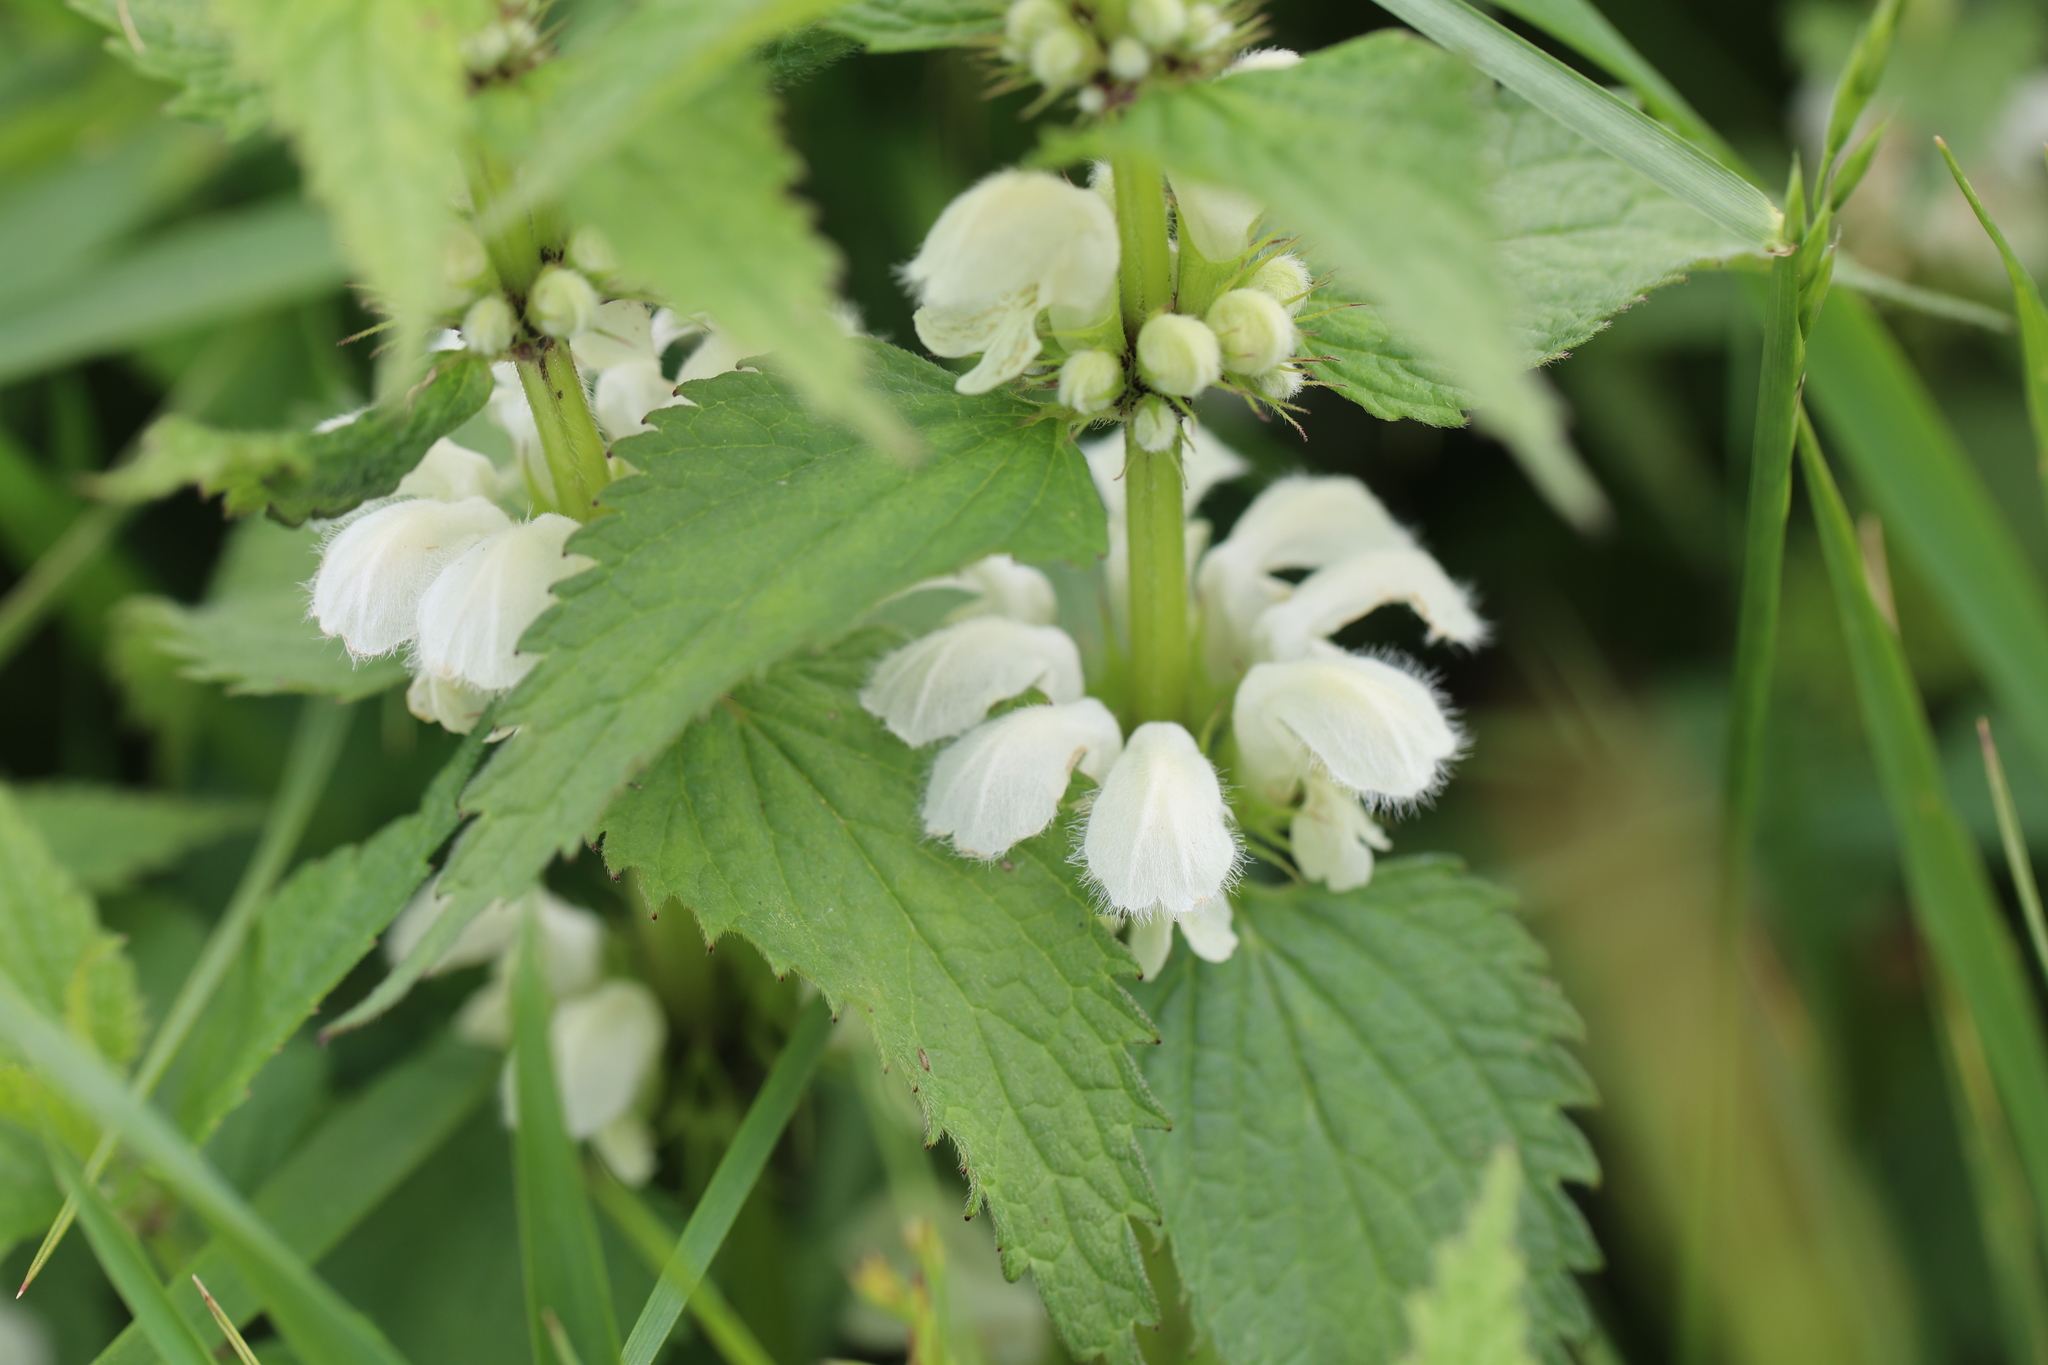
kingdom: Plantae
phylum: Tracheophyta
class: Magnoliopsida
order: Lamiales
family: Lamiaceae
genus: Lamium
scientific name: Lamium album
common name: White dead-nettle
